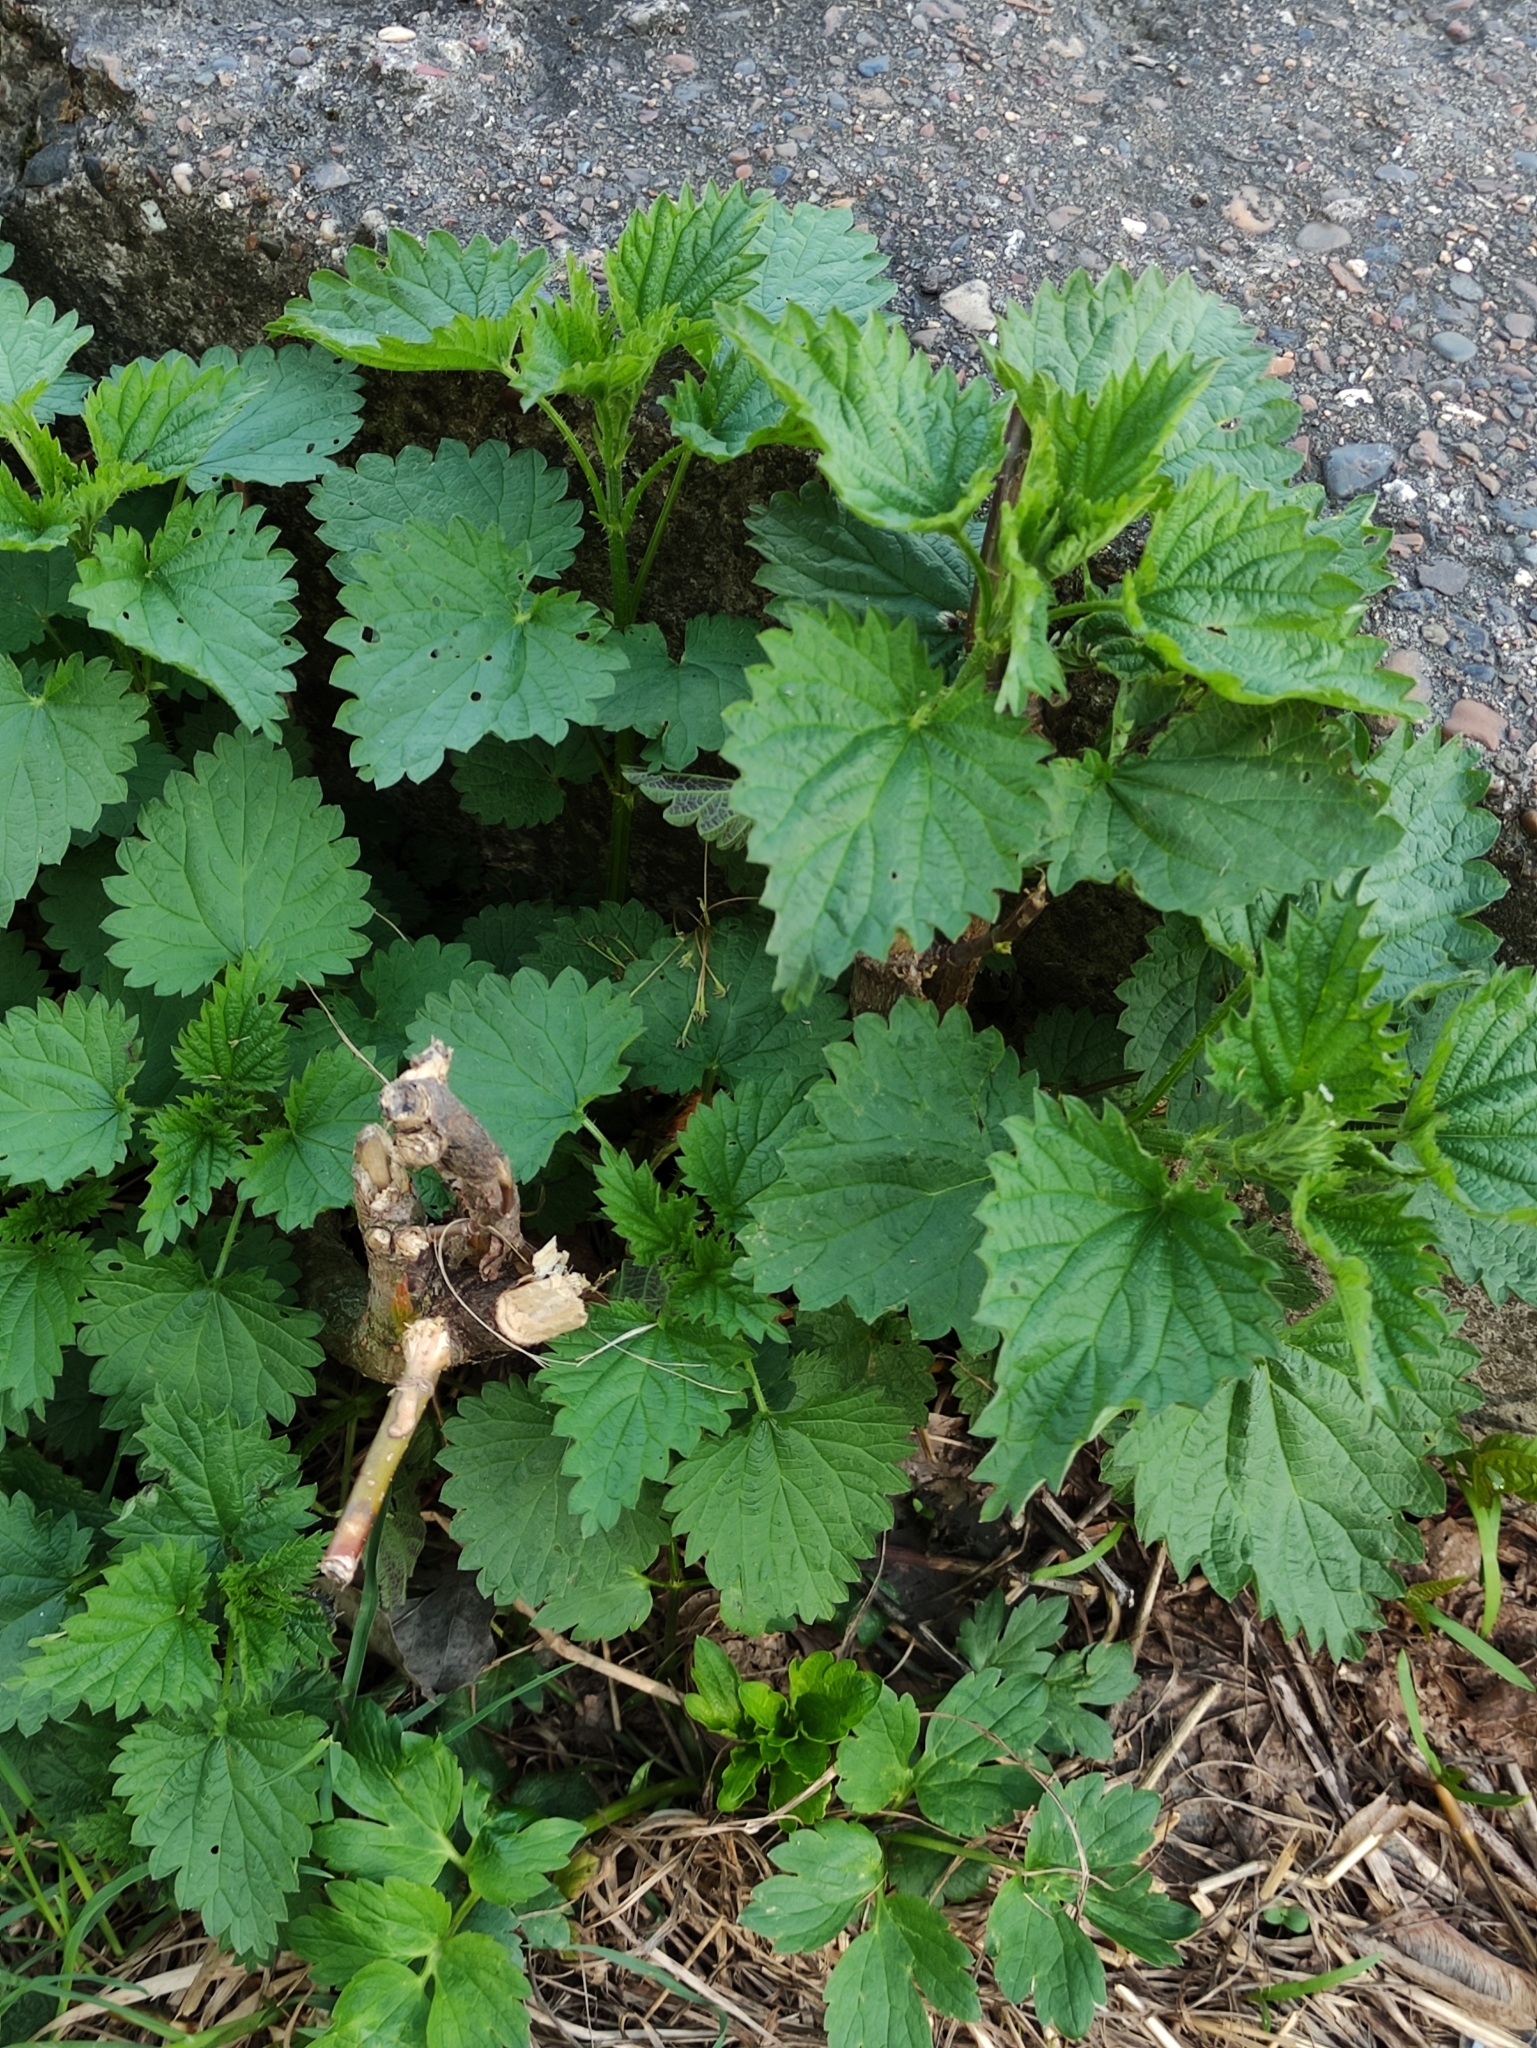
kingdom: Plantae
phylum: Tracheophyta
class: Magnoliopsida
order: Rosales
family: Urticaceae
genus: Urtica
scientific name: Urtica dioica
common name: Common nettle
